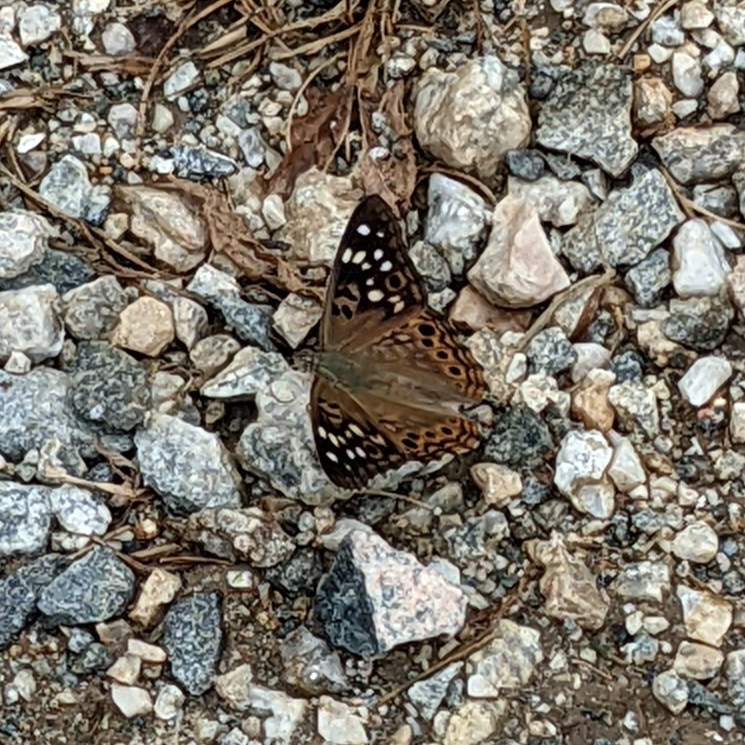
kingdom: Animalia
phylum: Arthropoda
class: Insecta
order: Lepidoptera
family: Nymphalidae
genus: Asterocampa
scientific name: Asterocampa celtis
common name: Hackberry emperor
